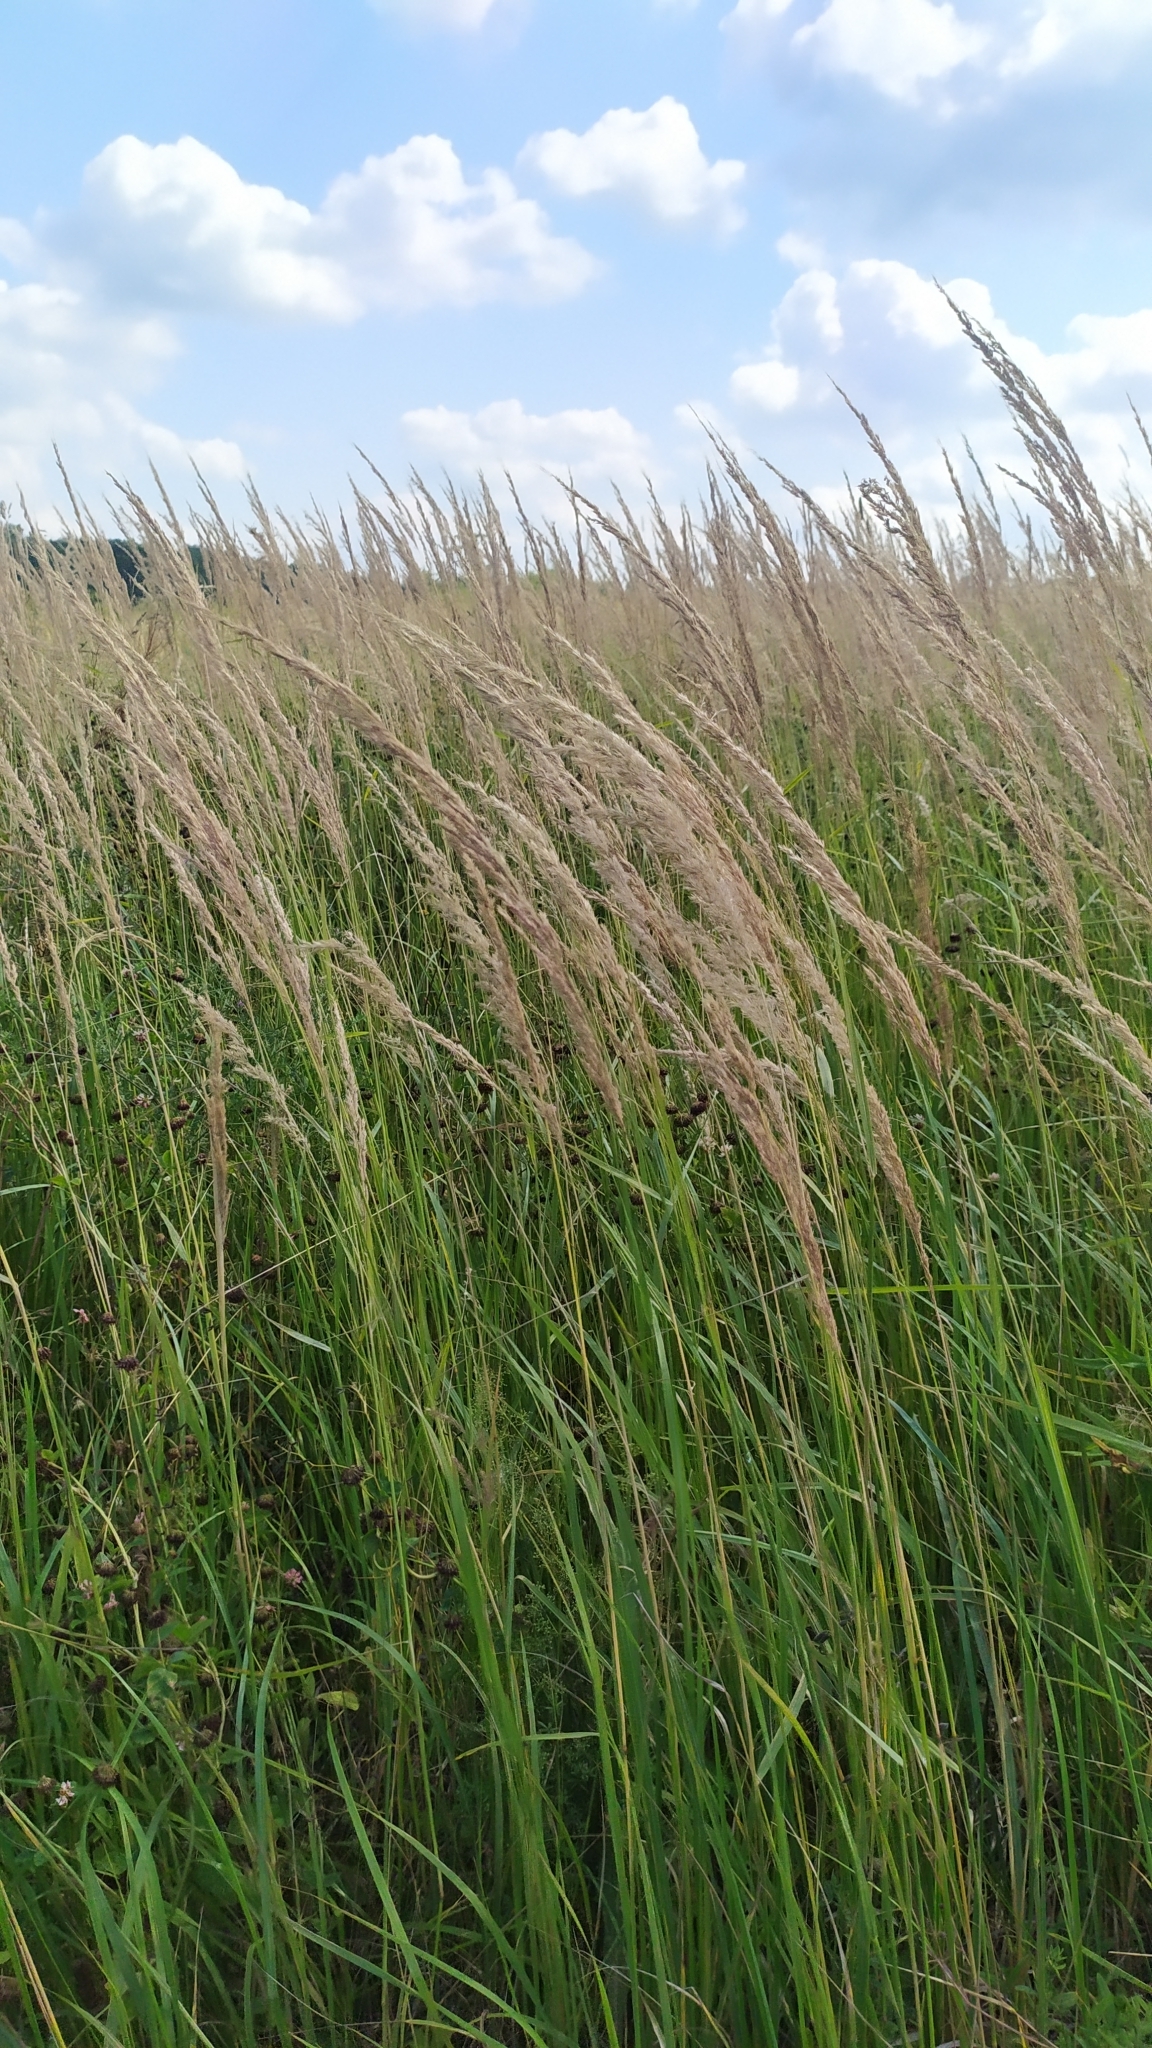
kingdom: Plantae
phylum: Tracheophyta
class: Liliopsida
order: Poales
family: Poaceae
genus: Calamagrostis
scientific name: Calamagrostis epigejos
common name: Wood small-reed
